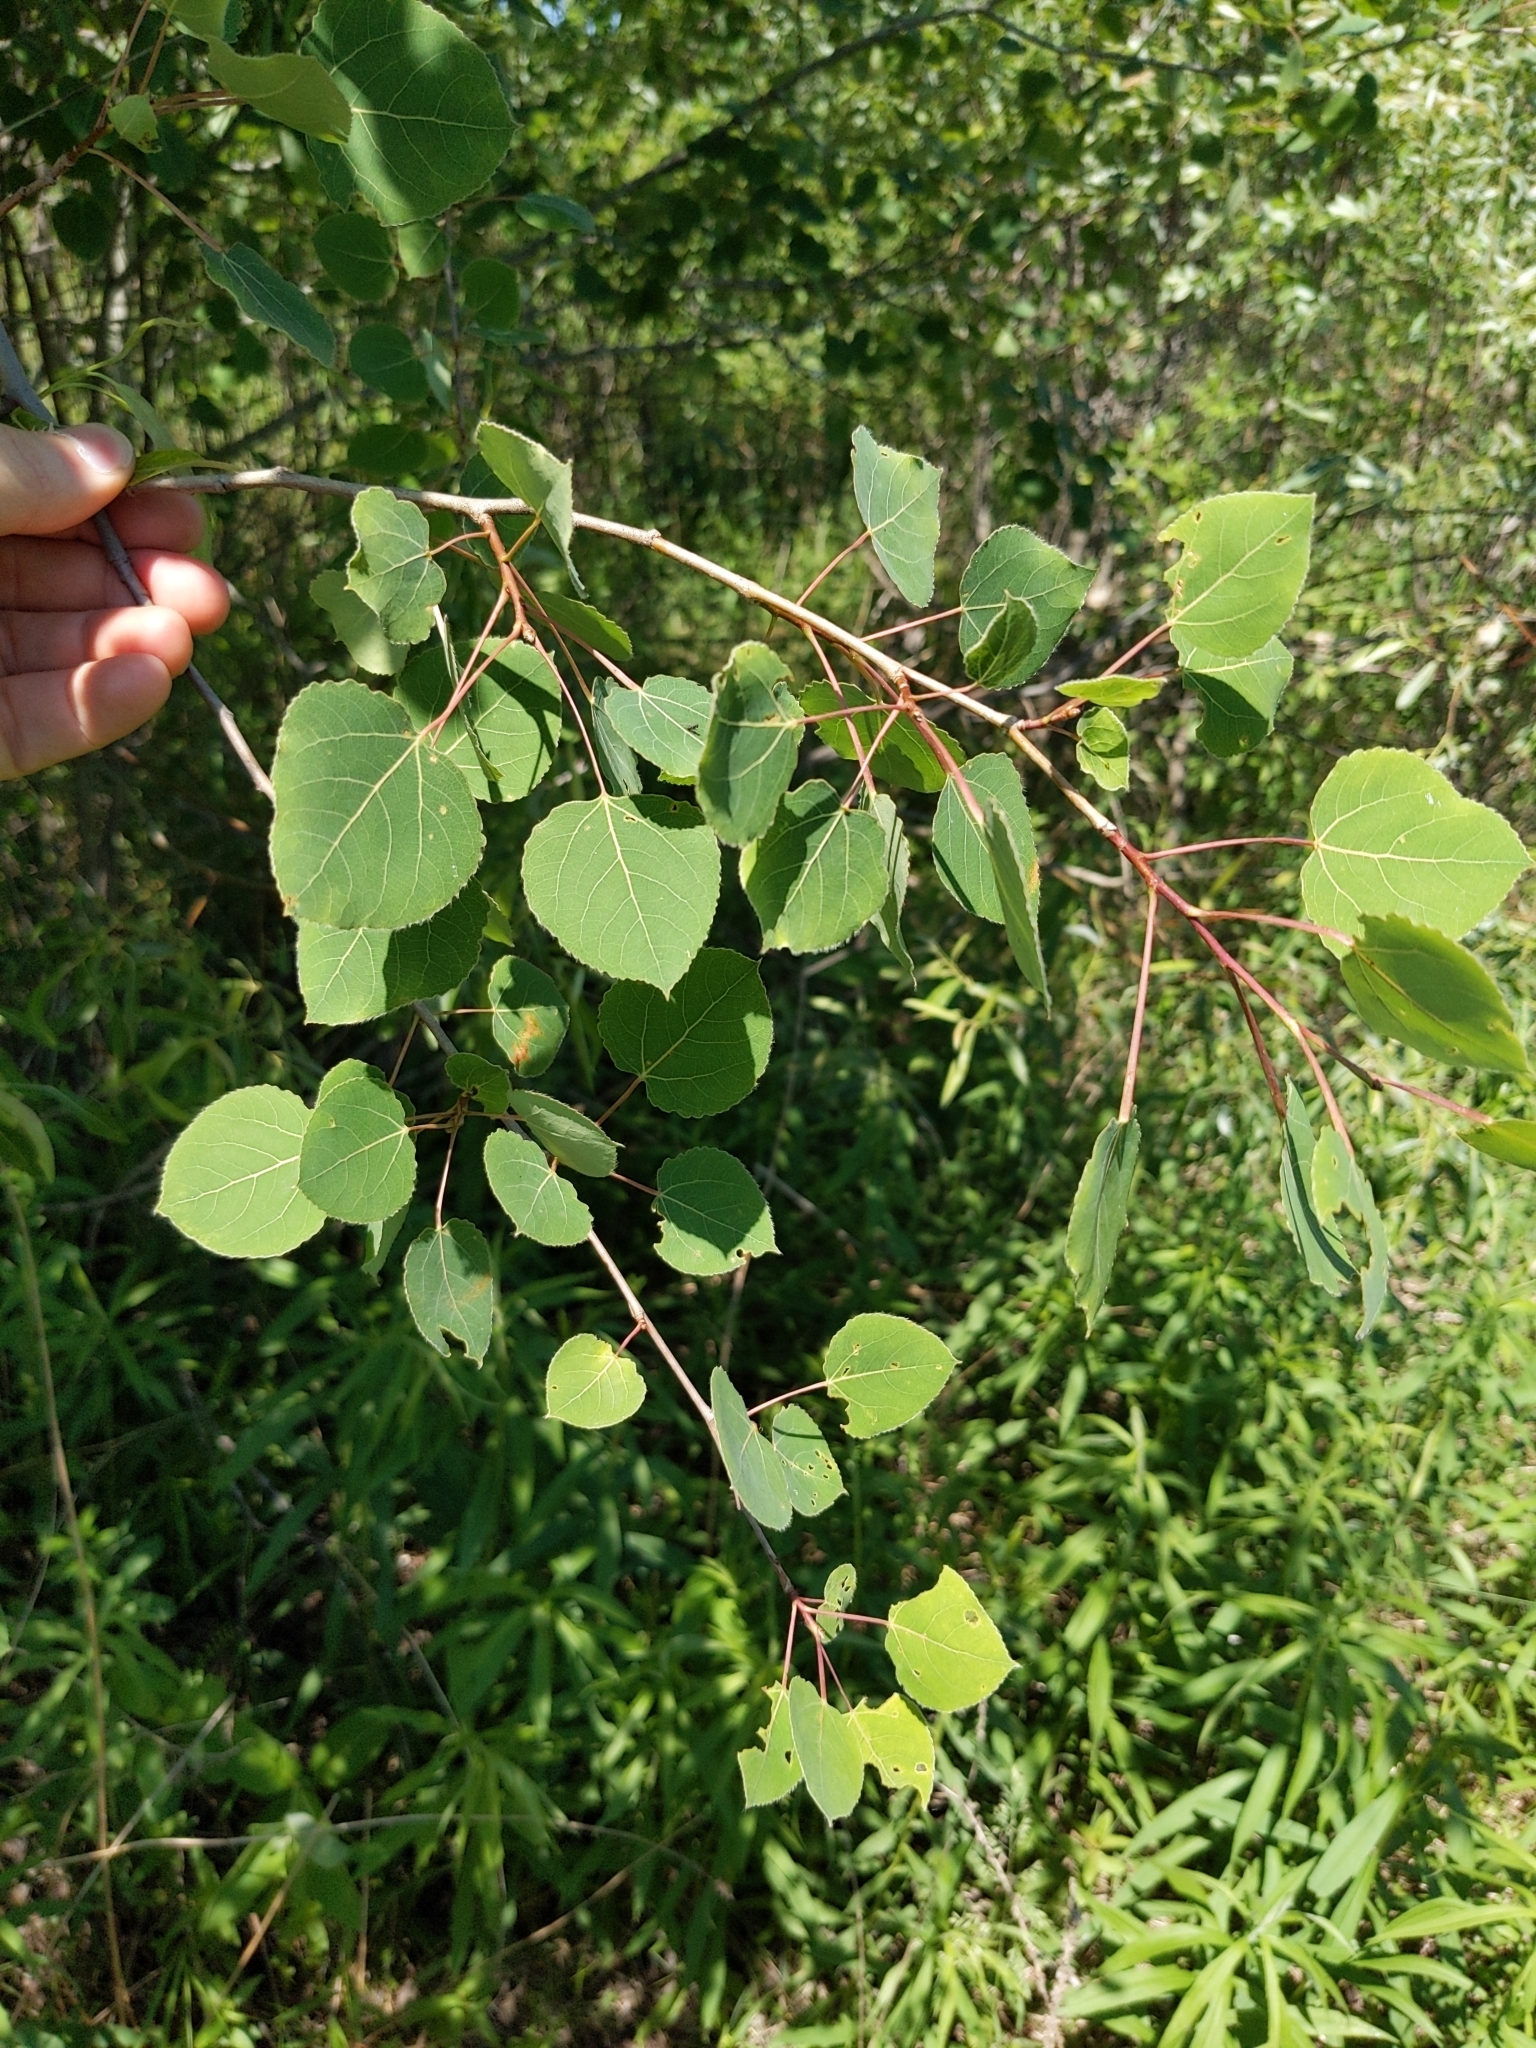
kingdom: Plantae
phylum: Tracheophyta
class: Magnoliopsida
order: Malpighiales
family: Salicaceae
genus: Populus
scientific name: Populus tremuloides
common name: Quaking aspen
